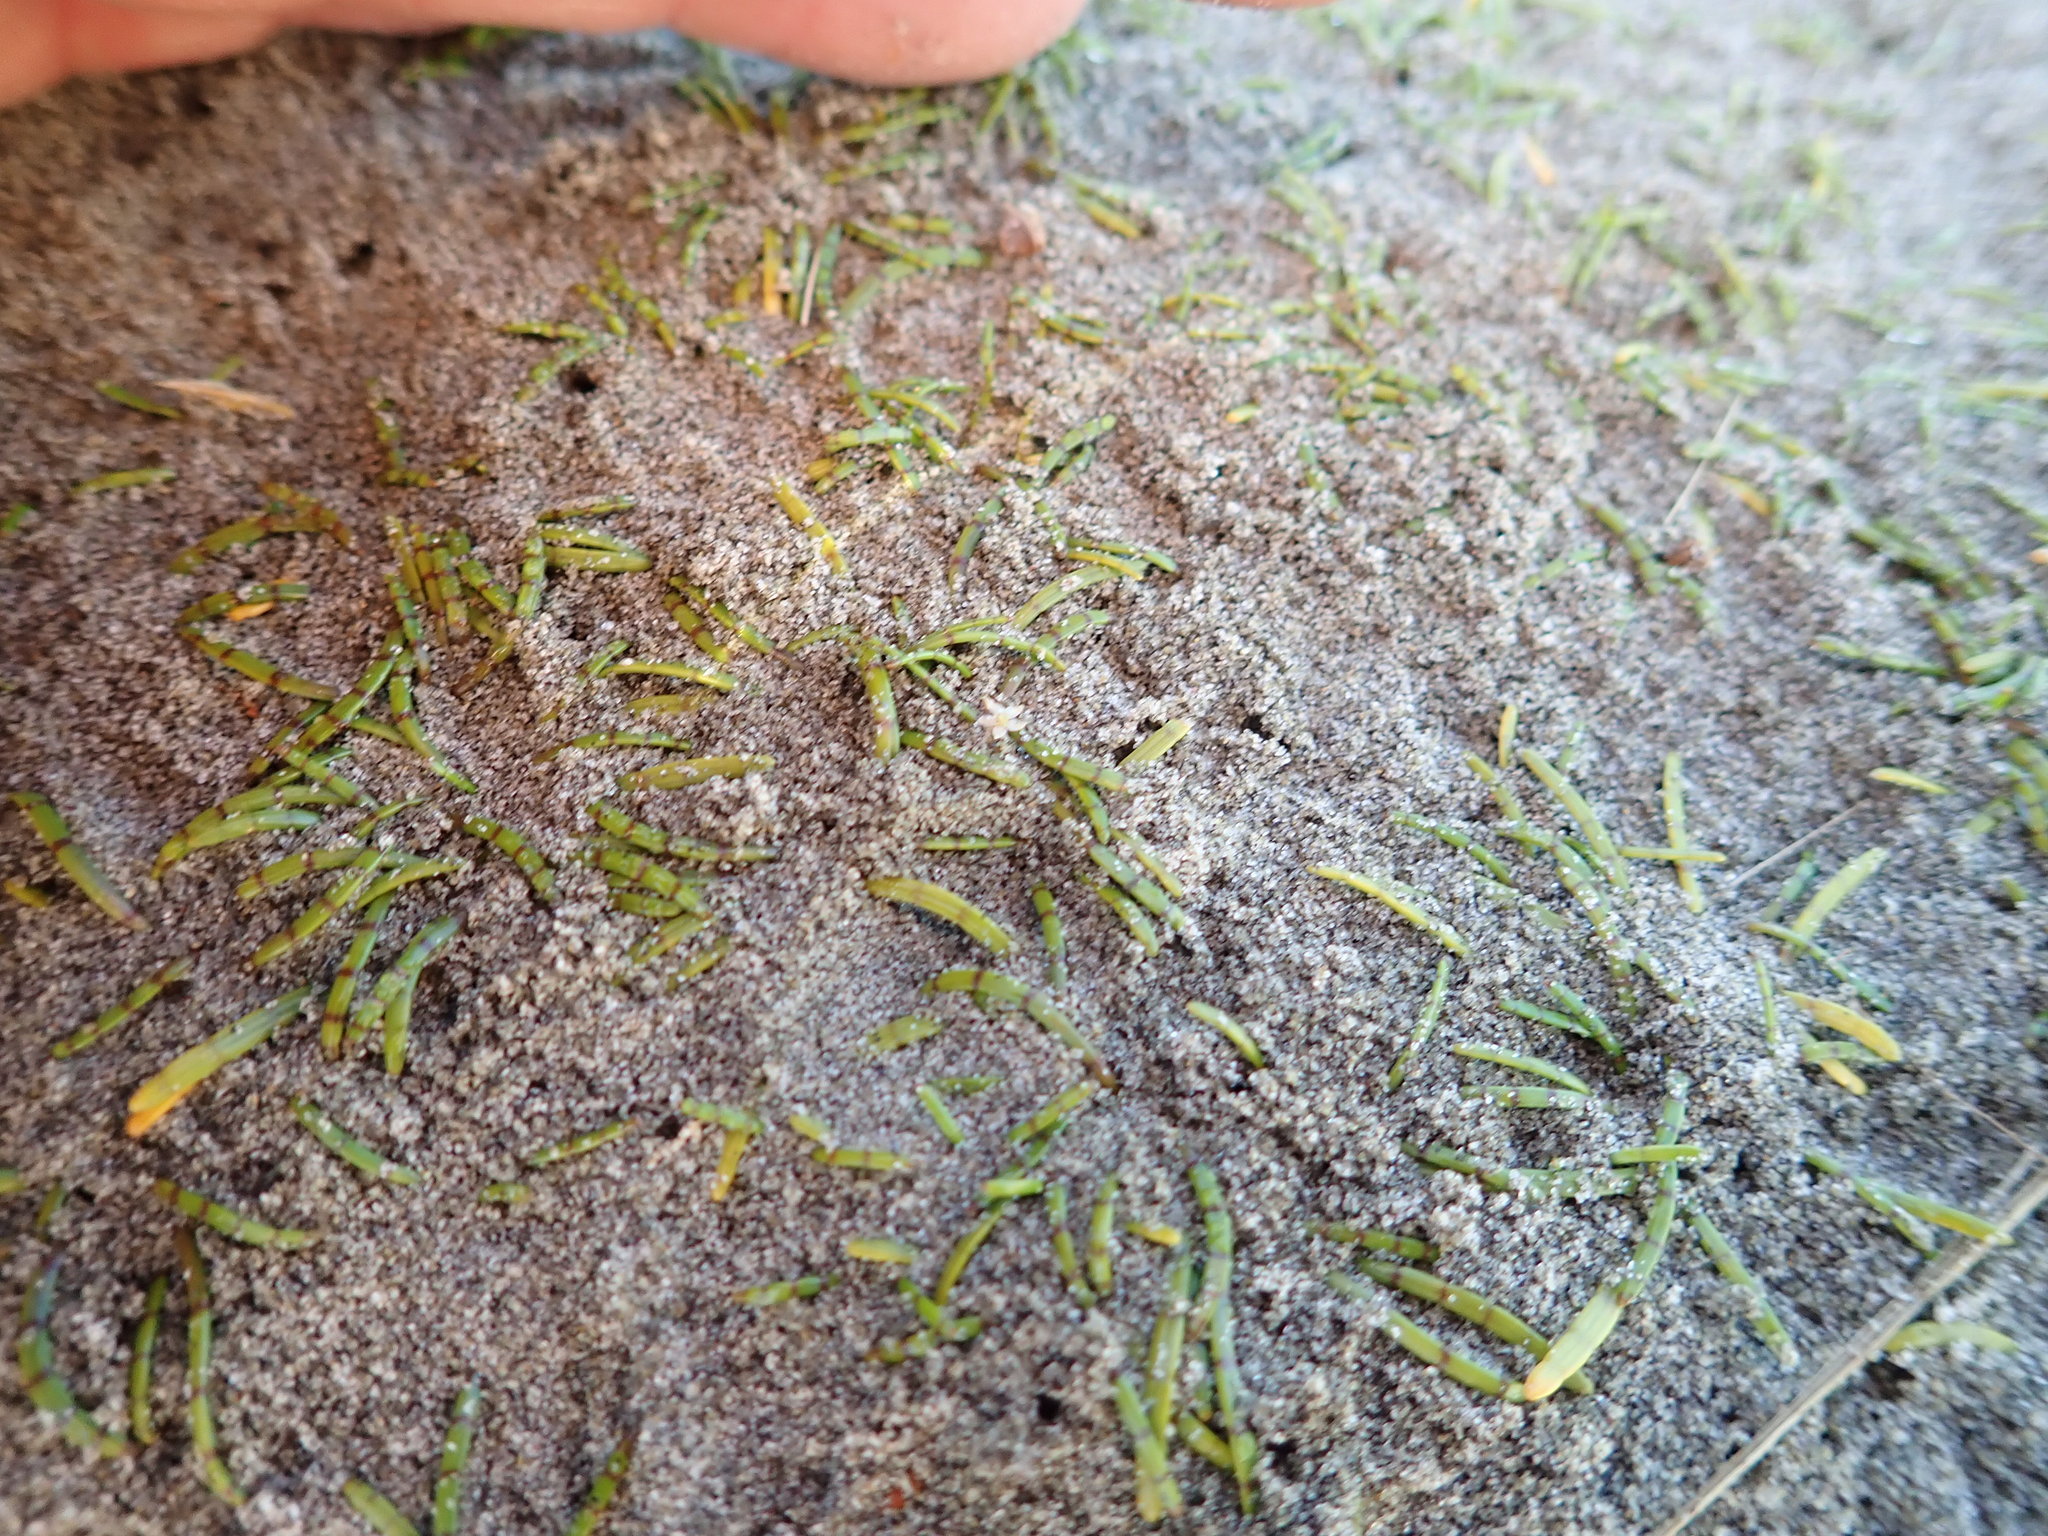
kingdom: Plantae
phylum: Tracheophyta
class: Magnoliopsida
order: Apiales
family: Apiaceae
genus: Lilaeopsis
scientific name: Lilaeopsis novae-zelandiae
